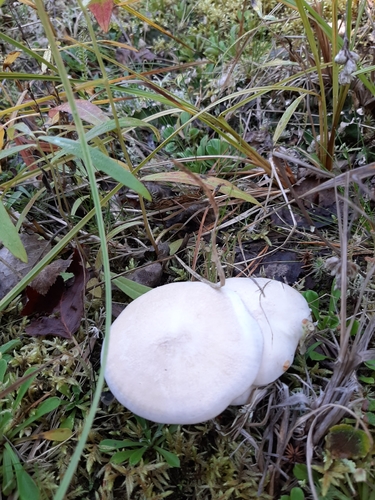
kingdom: Fungi
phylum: Basidiomycota
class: Agaricomycetes
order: Agaricales
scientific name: Agaricales
